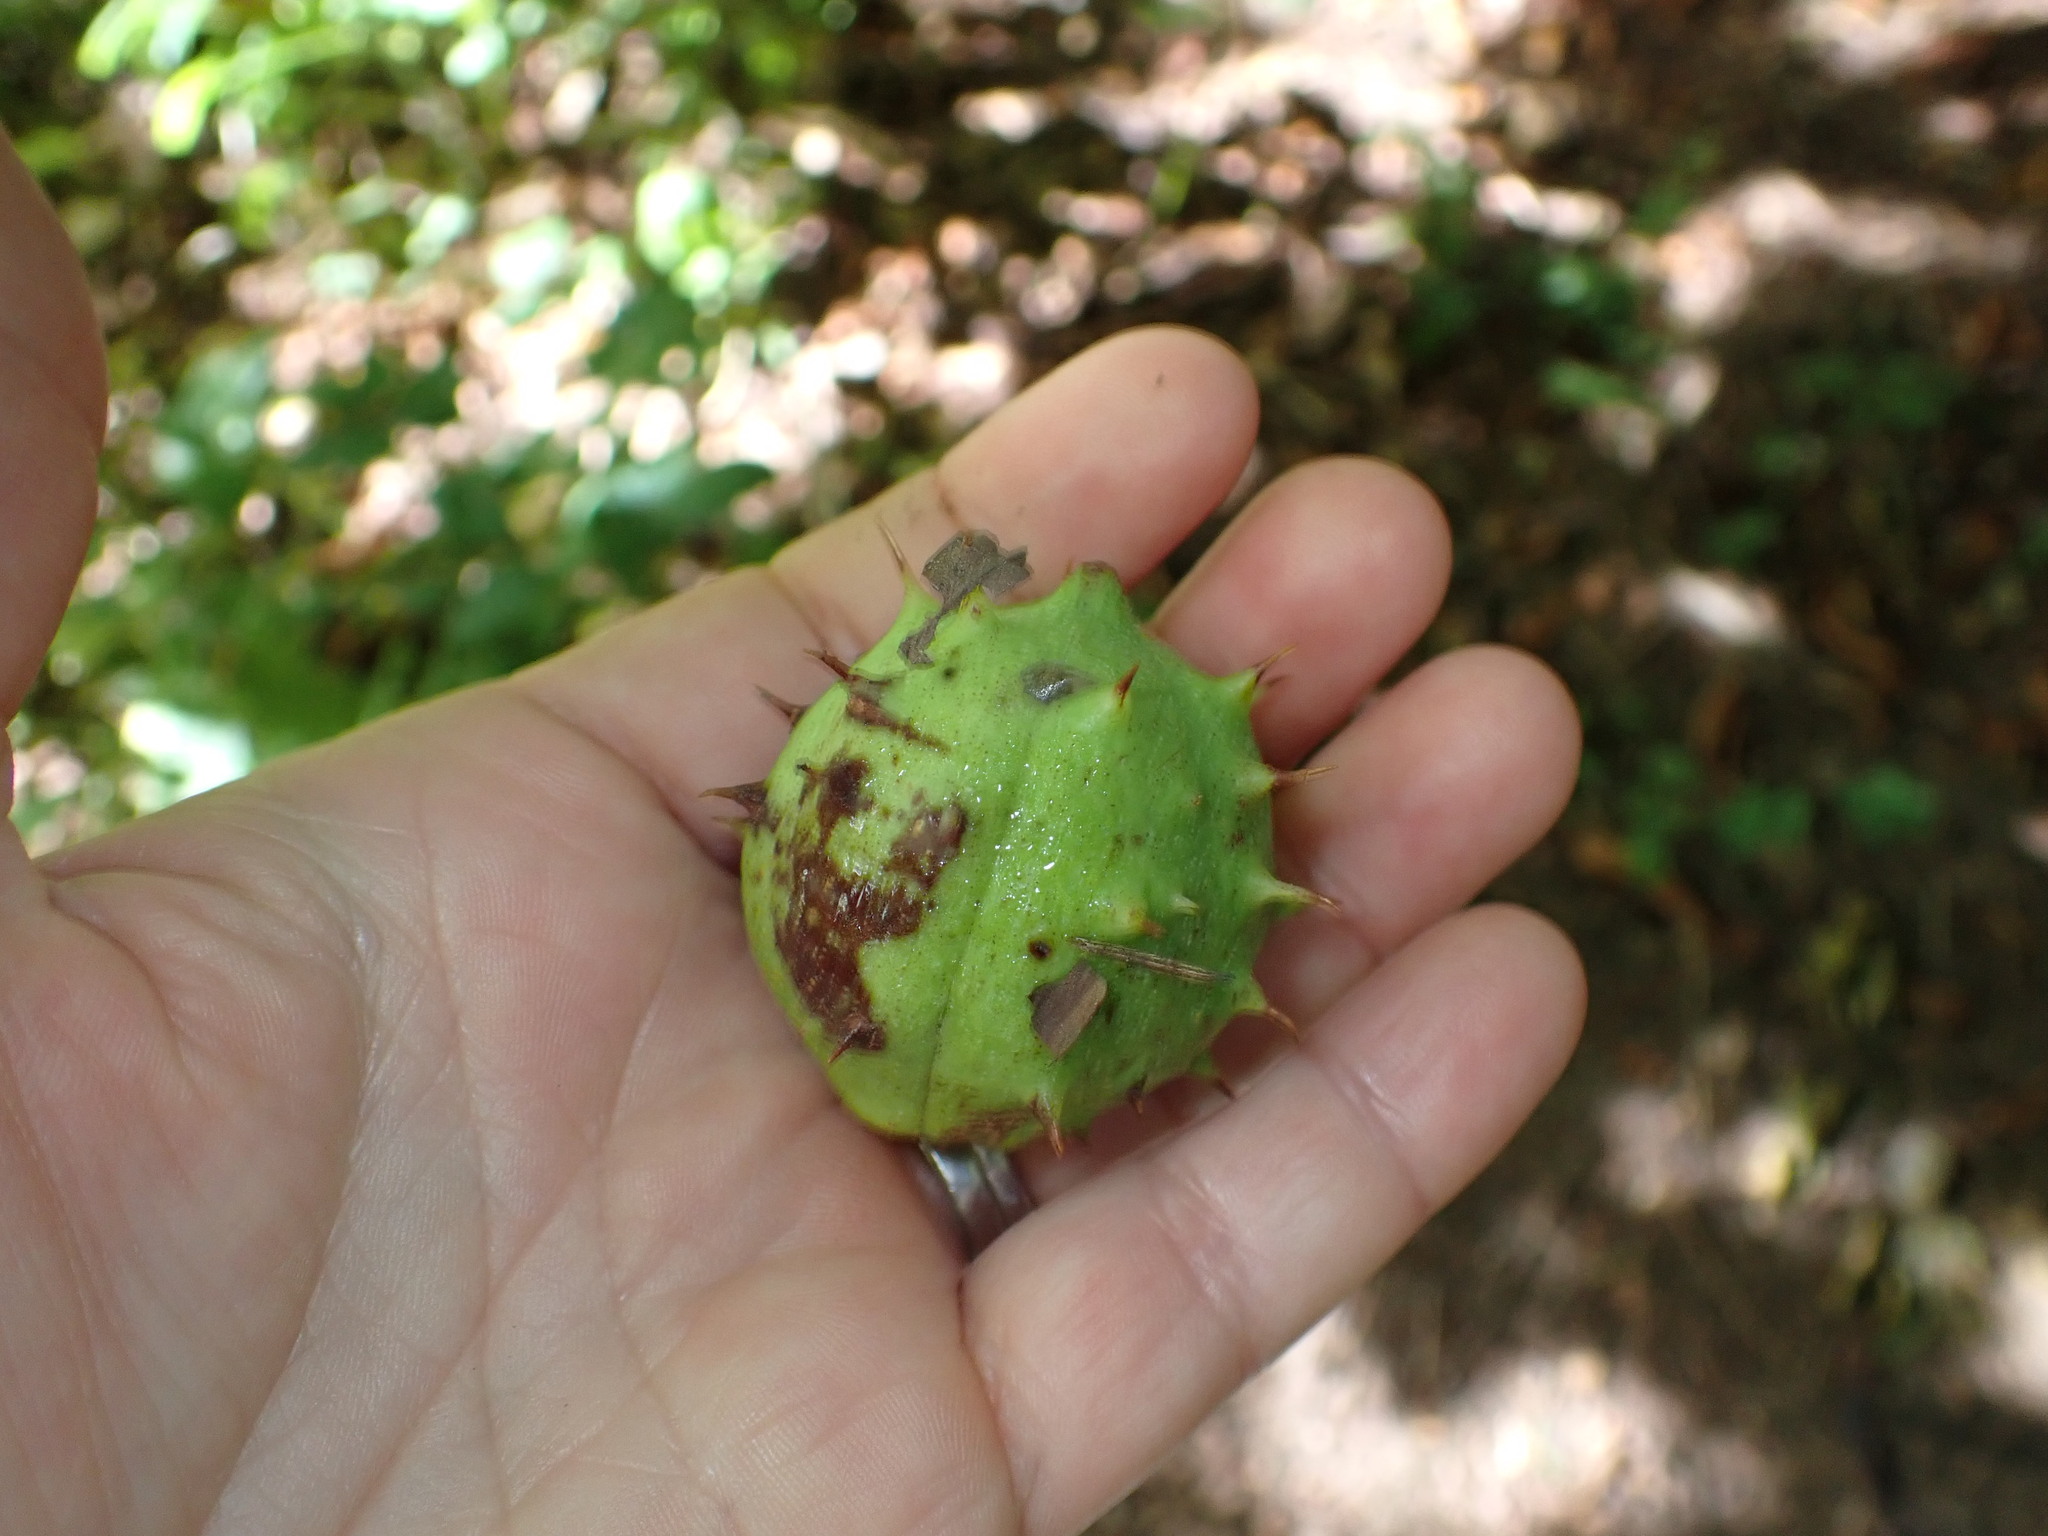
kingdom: Plantae
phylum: Tracheophyta
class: Magnoliopsida
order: Sapindales
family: Sapindaceae
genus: Aesculus
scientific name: Aesculus hippocastanum
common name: Horse-chestnut
